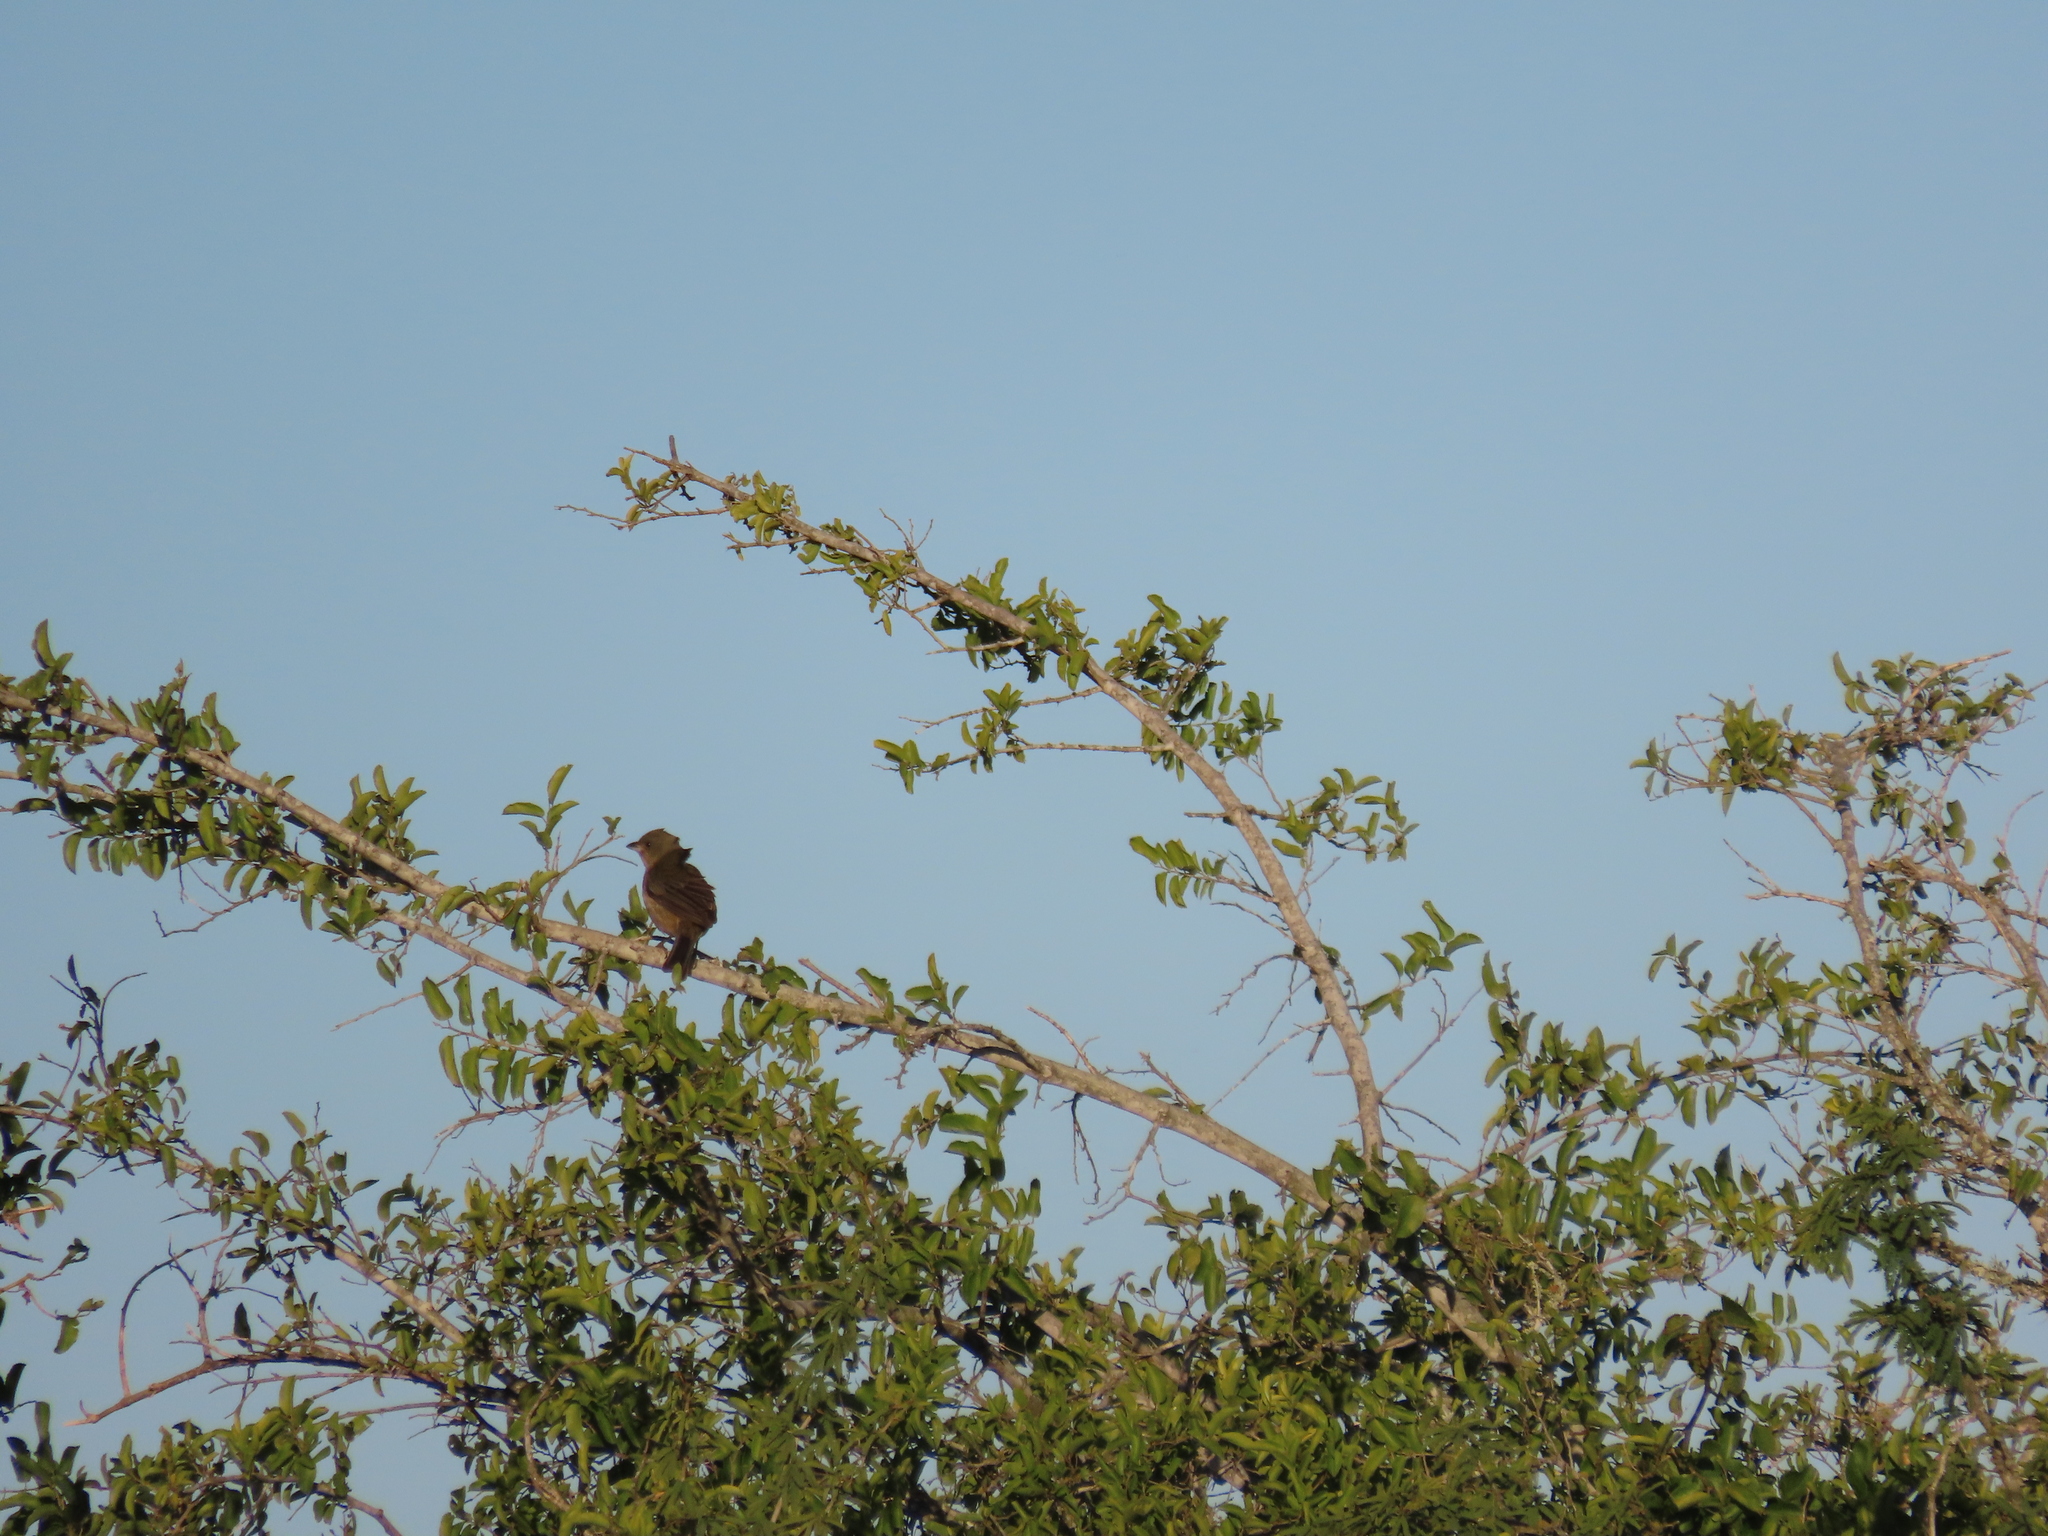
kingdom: Animalia
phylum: Chordata
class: Aves
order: Passeriformes
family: Thraupidae
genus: Rauenia
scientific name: Rauenia bonariensis
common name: Blue-and-yellow tanager
